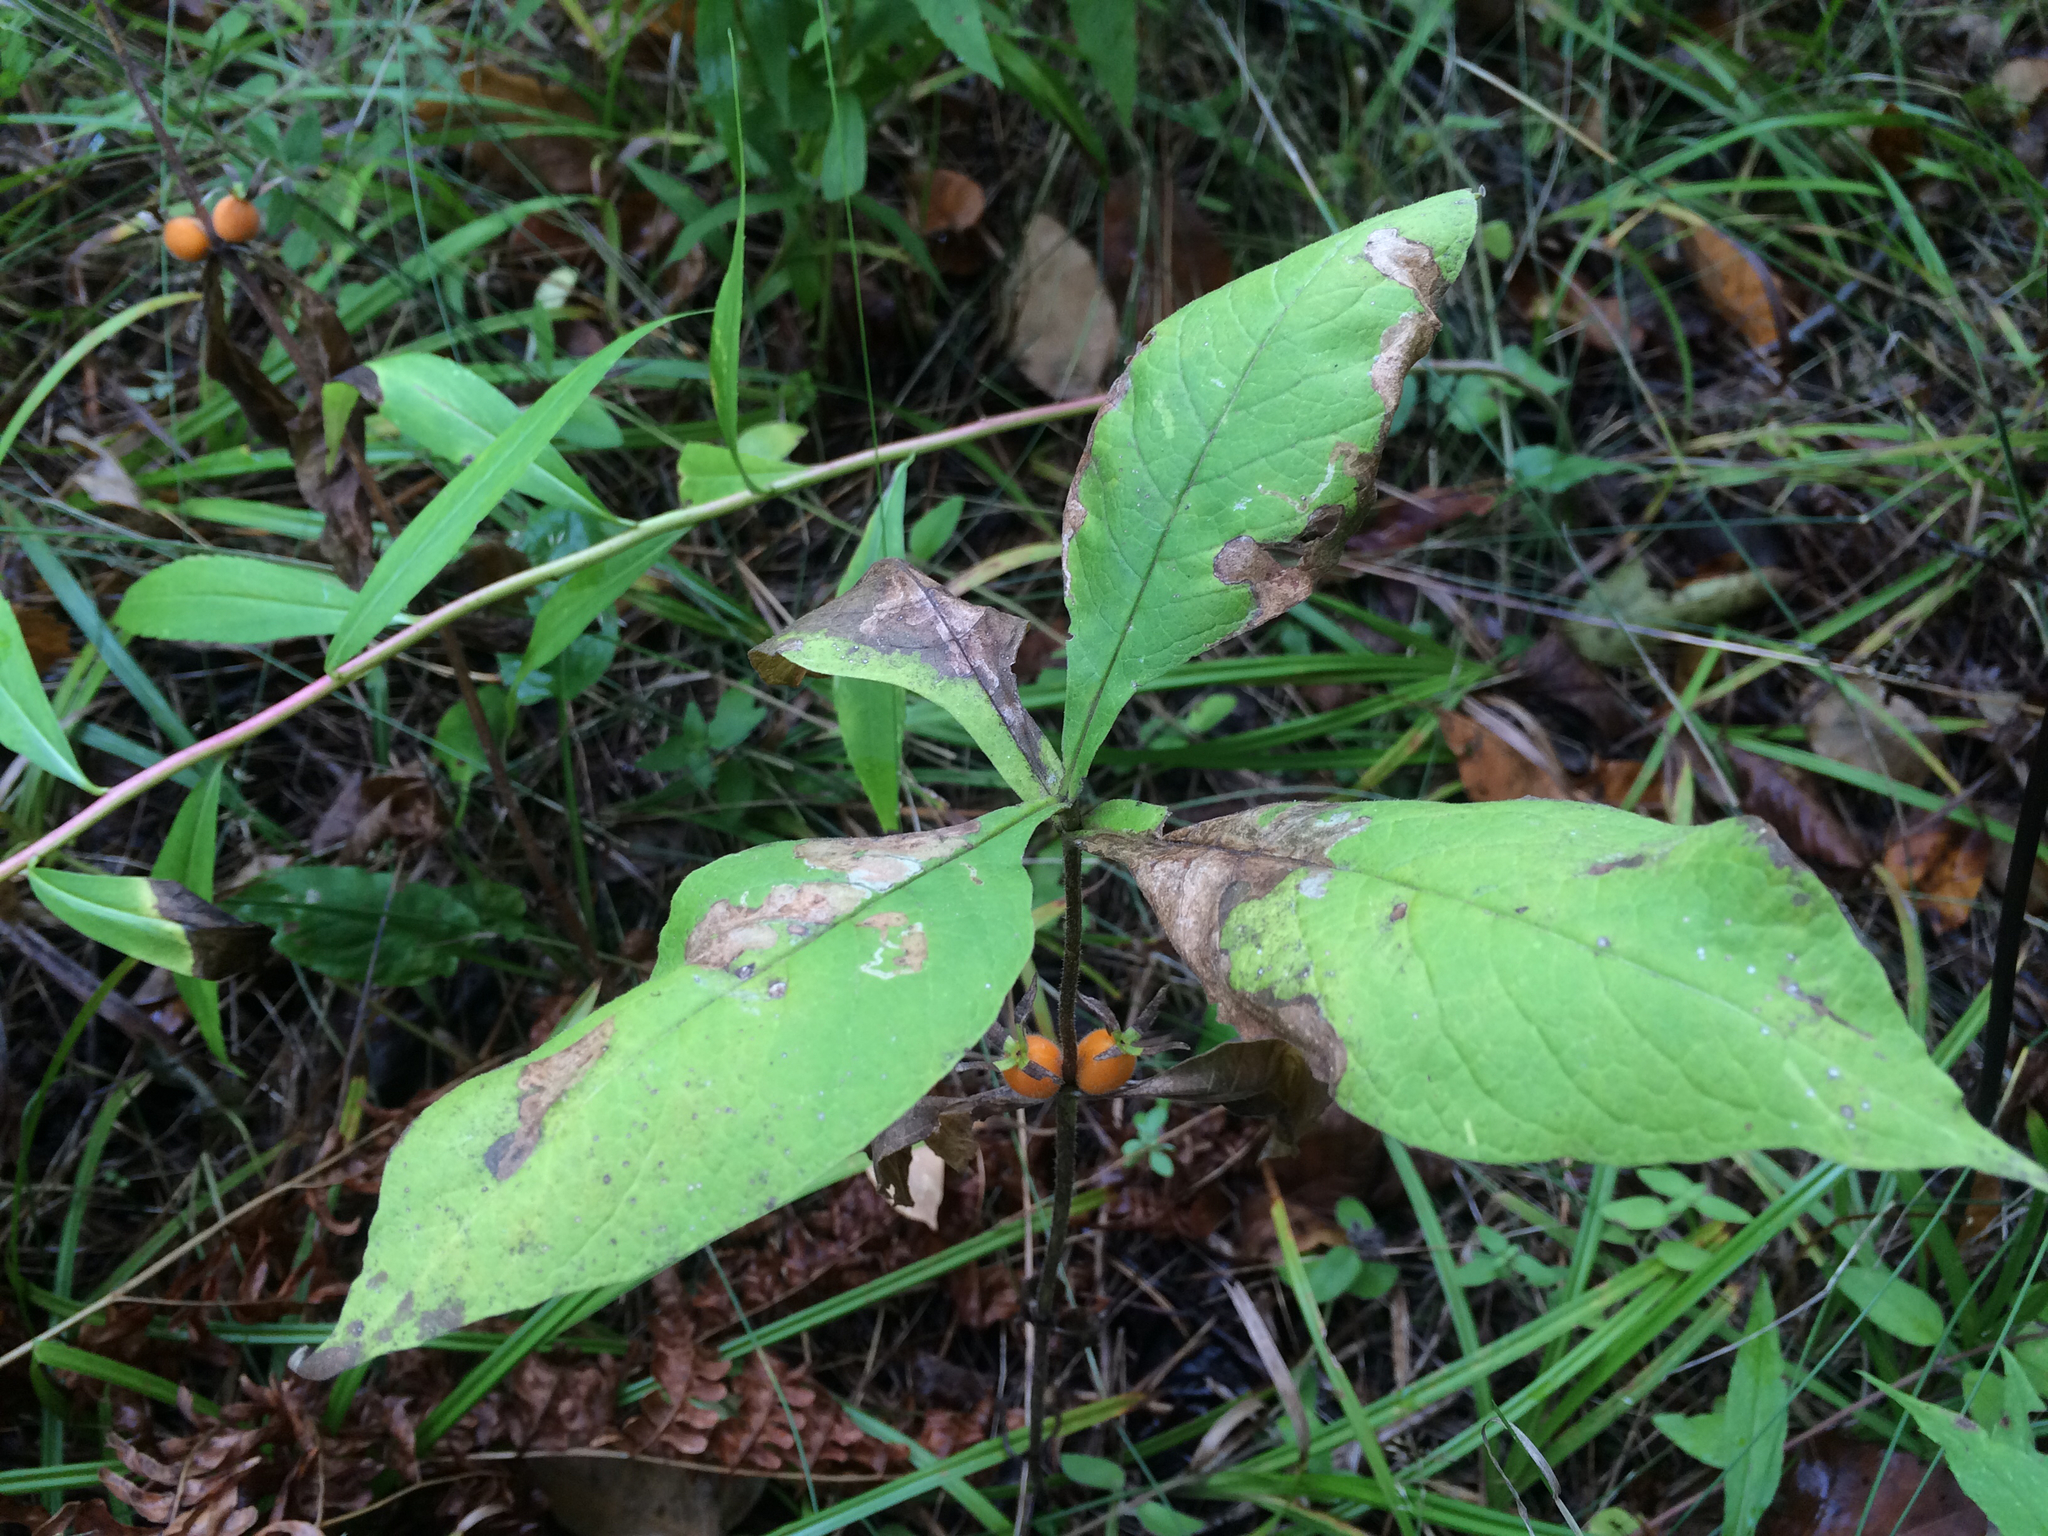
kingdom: Plantae
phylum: Tracheophyta
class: Magnoliopsida
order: Dipsacales
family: Caprifoliaceae
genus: Triosteum
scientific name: Triosteum aurantiacum
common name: Coffee tinker's-weed
